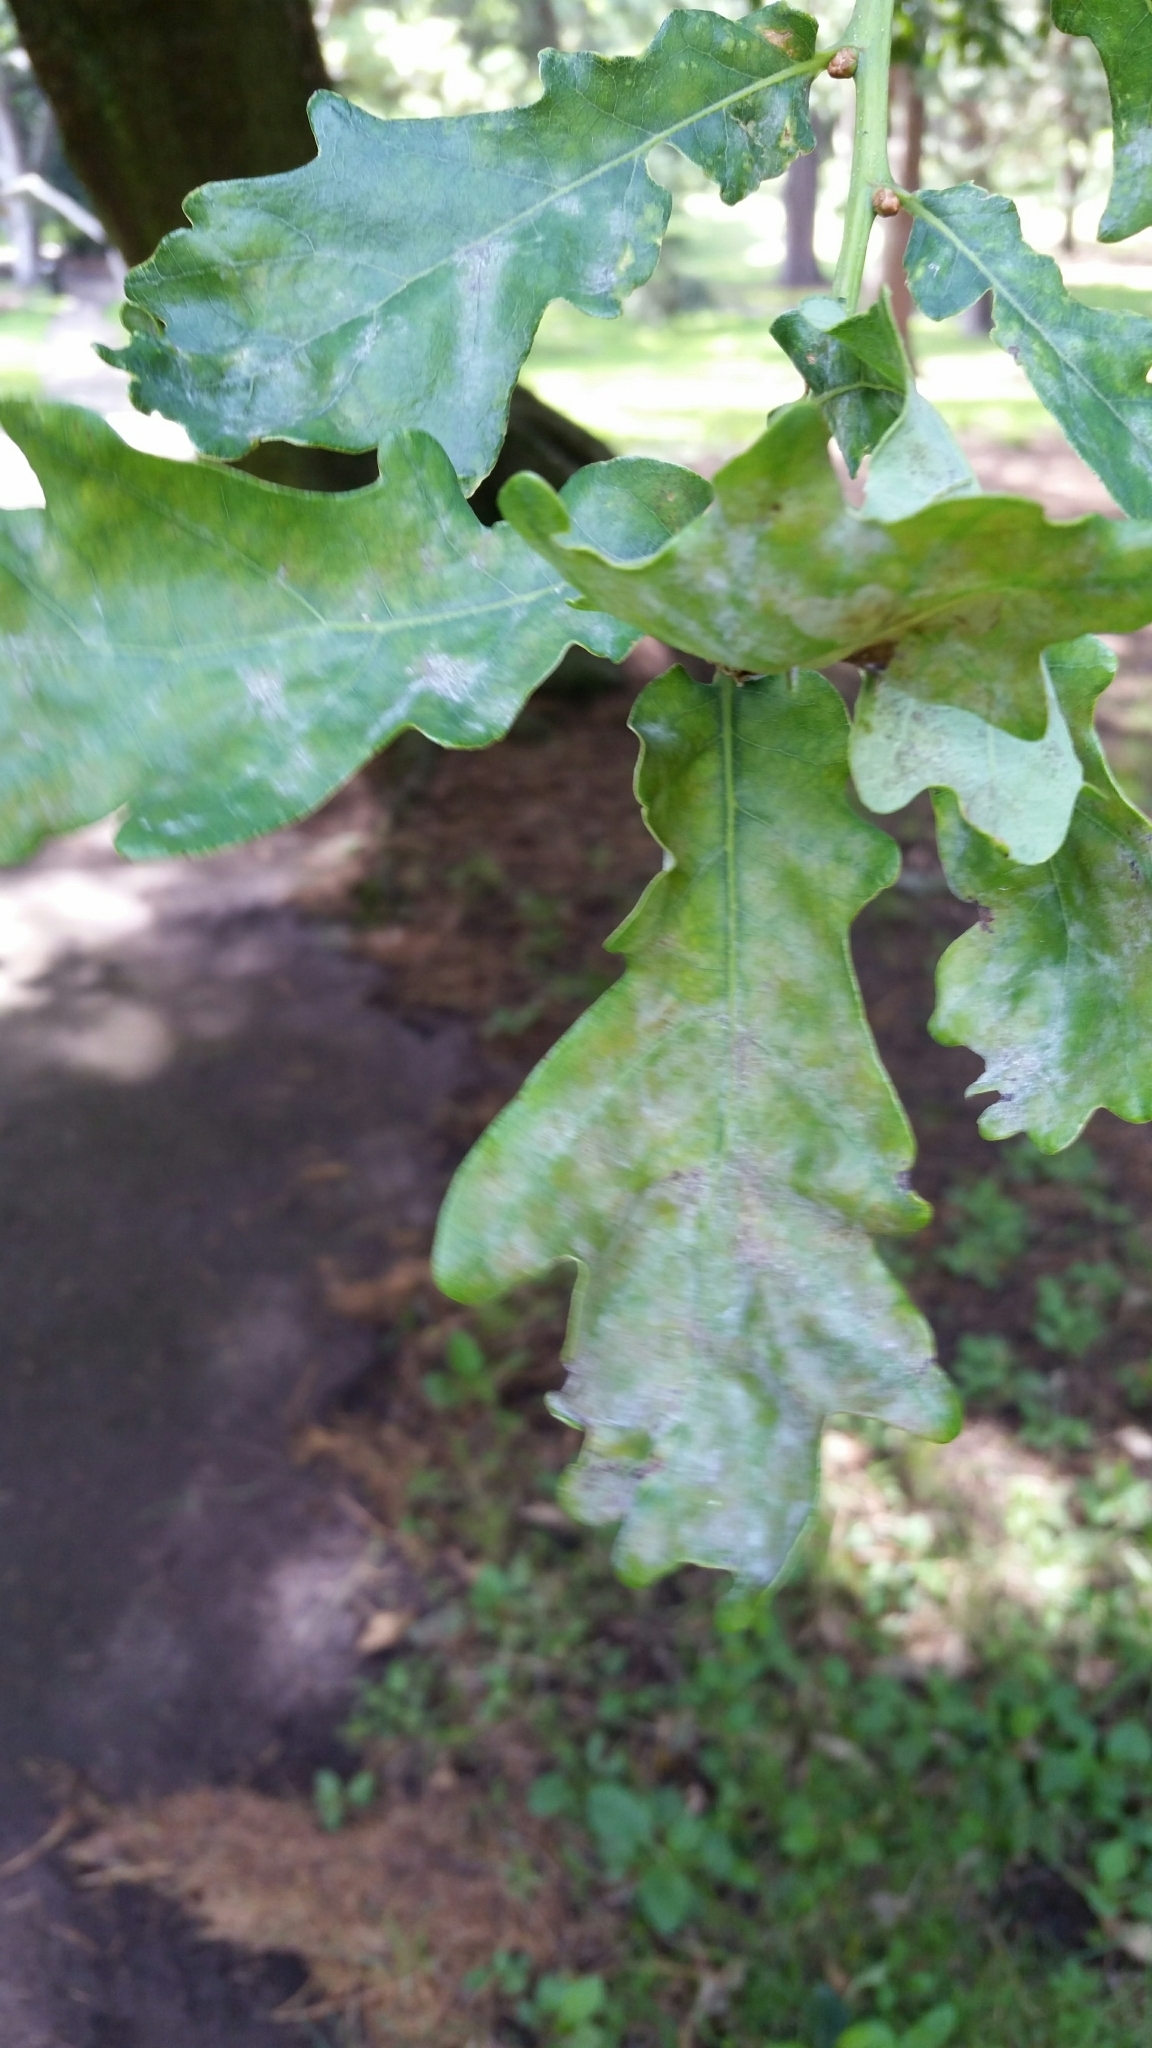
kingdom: Fungi
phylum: Ascomycota
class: Leotiomycetes
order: Helotiales
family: Erysiphaceae
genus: Erysiphe
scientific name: Erysiphe alphitoides
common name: Oak mildew
